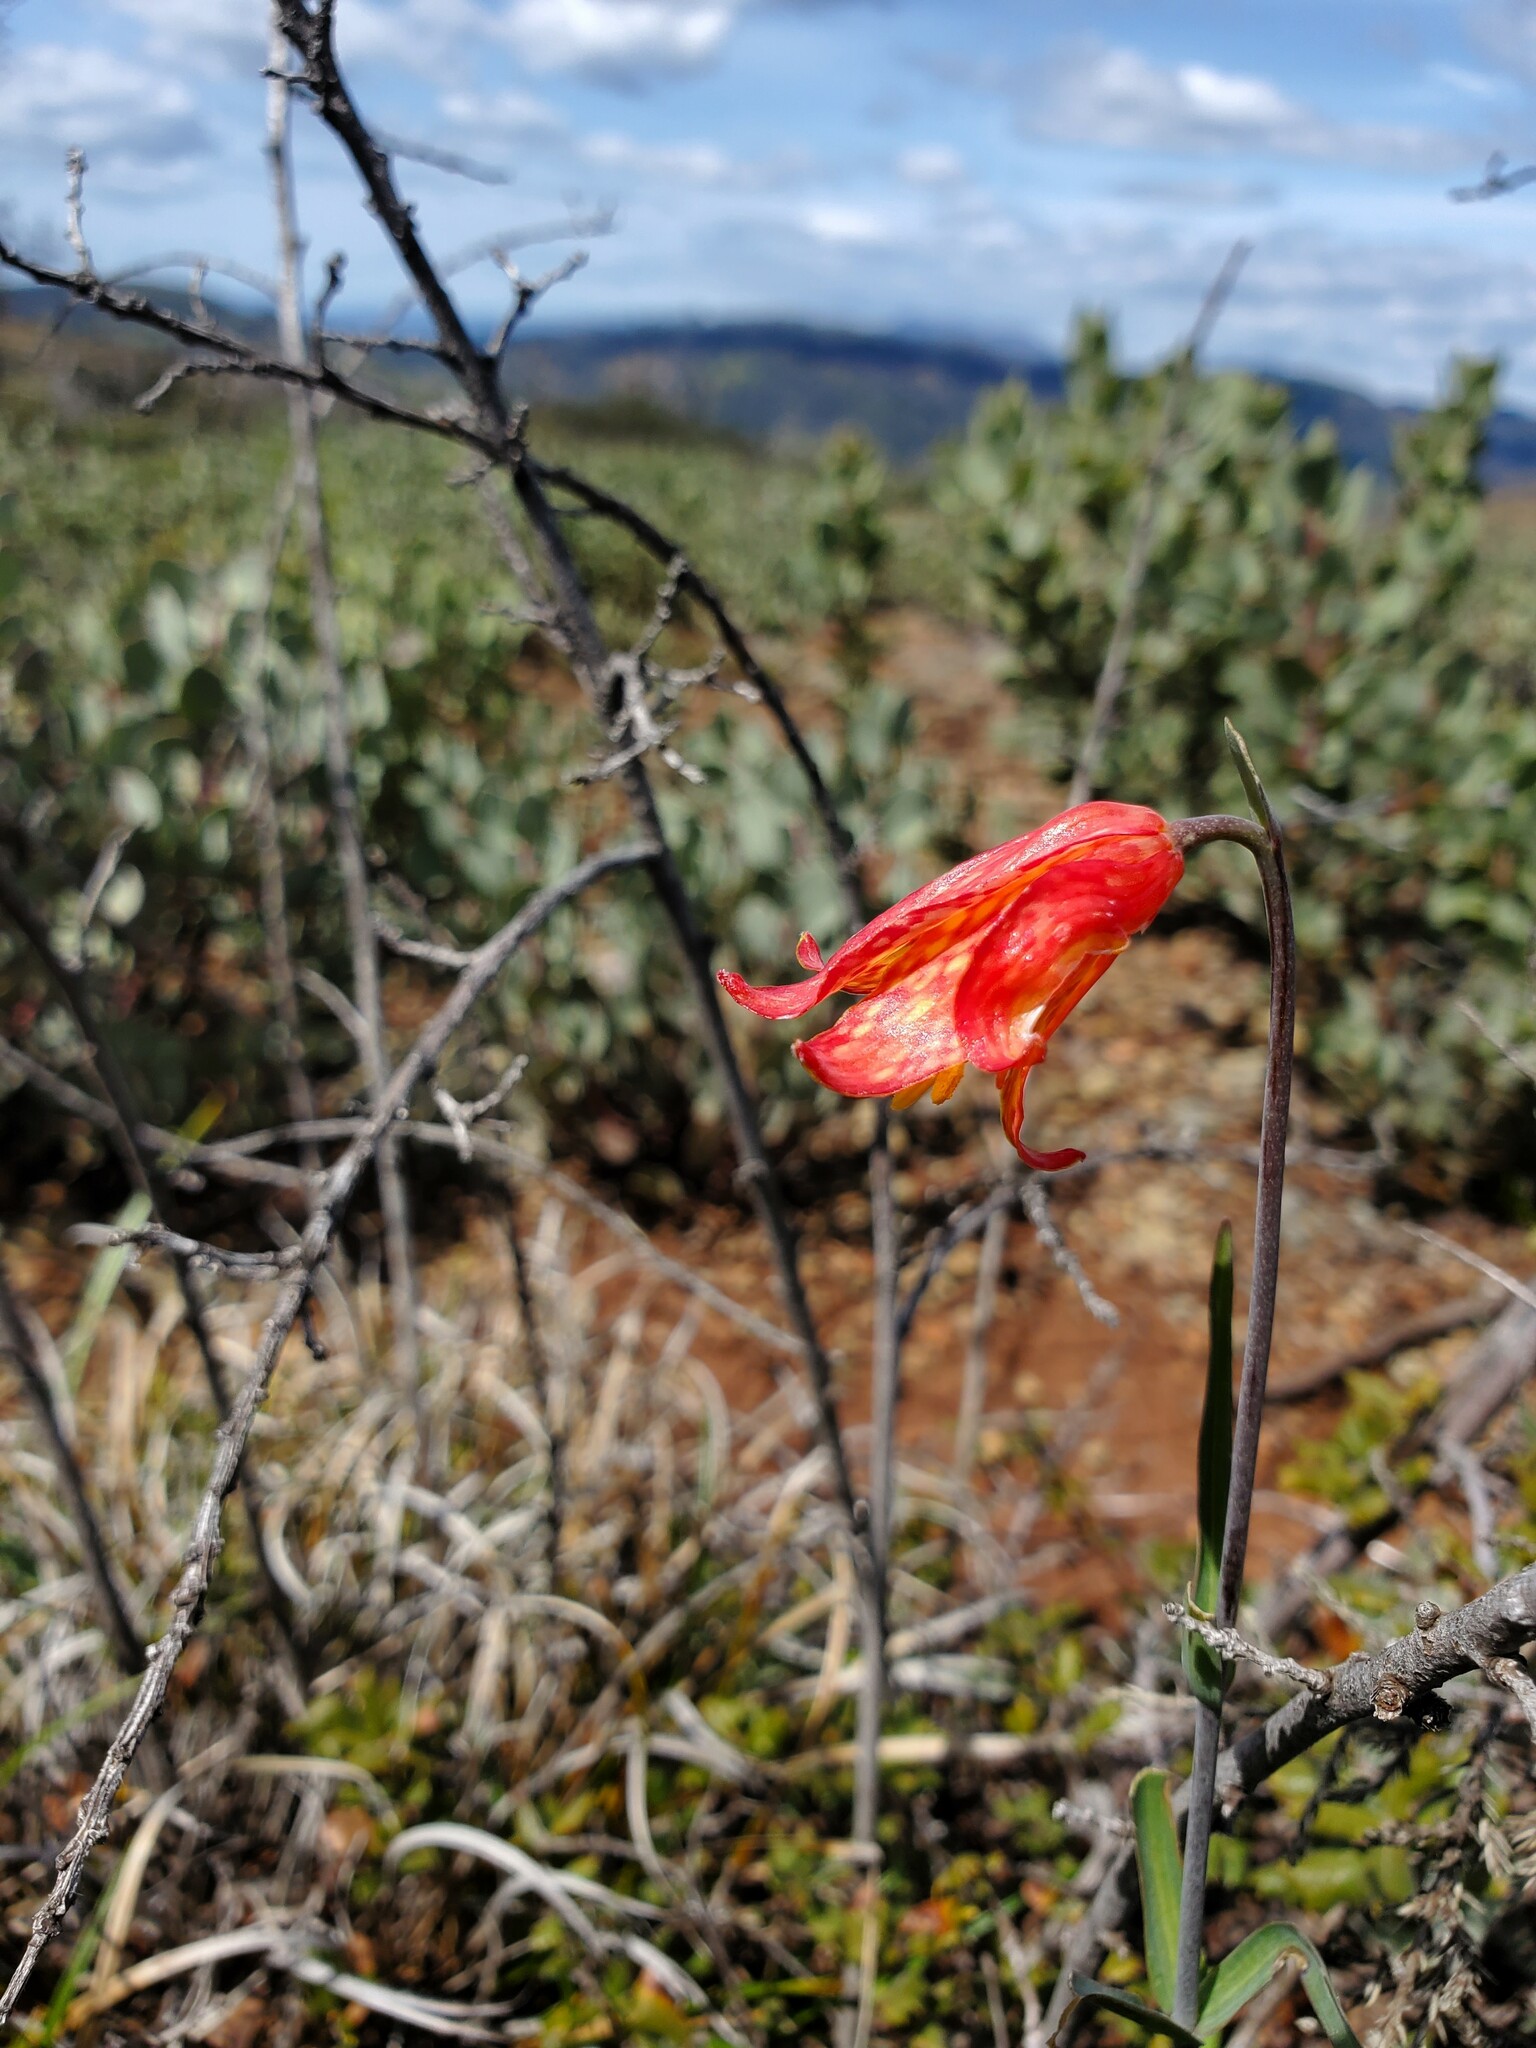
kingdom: Plantae
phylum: Tracheophyta
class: Liliopsida
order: Liliales
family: Liliaceae
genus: Fritillaria
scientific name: Fritillaria recurva
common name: Scarlet fritillary
